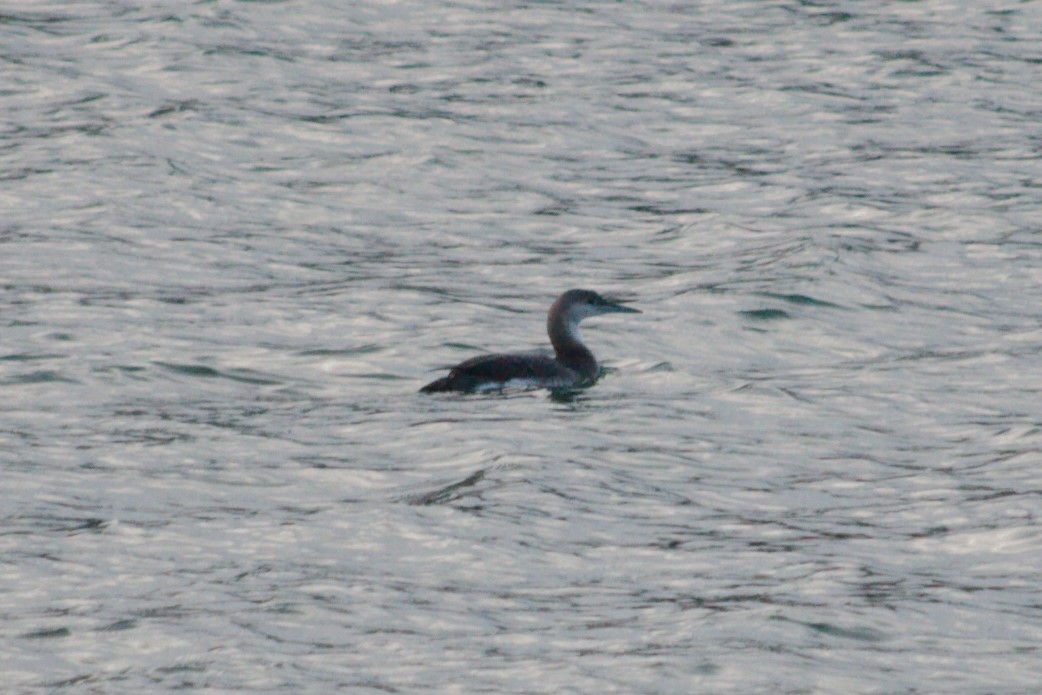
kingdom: Animalia
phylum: Chordata
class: Aves
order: Gaviiformes
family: Gaviidae
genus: Gavia
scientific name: Gavia arctica
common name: Black-throated loon
